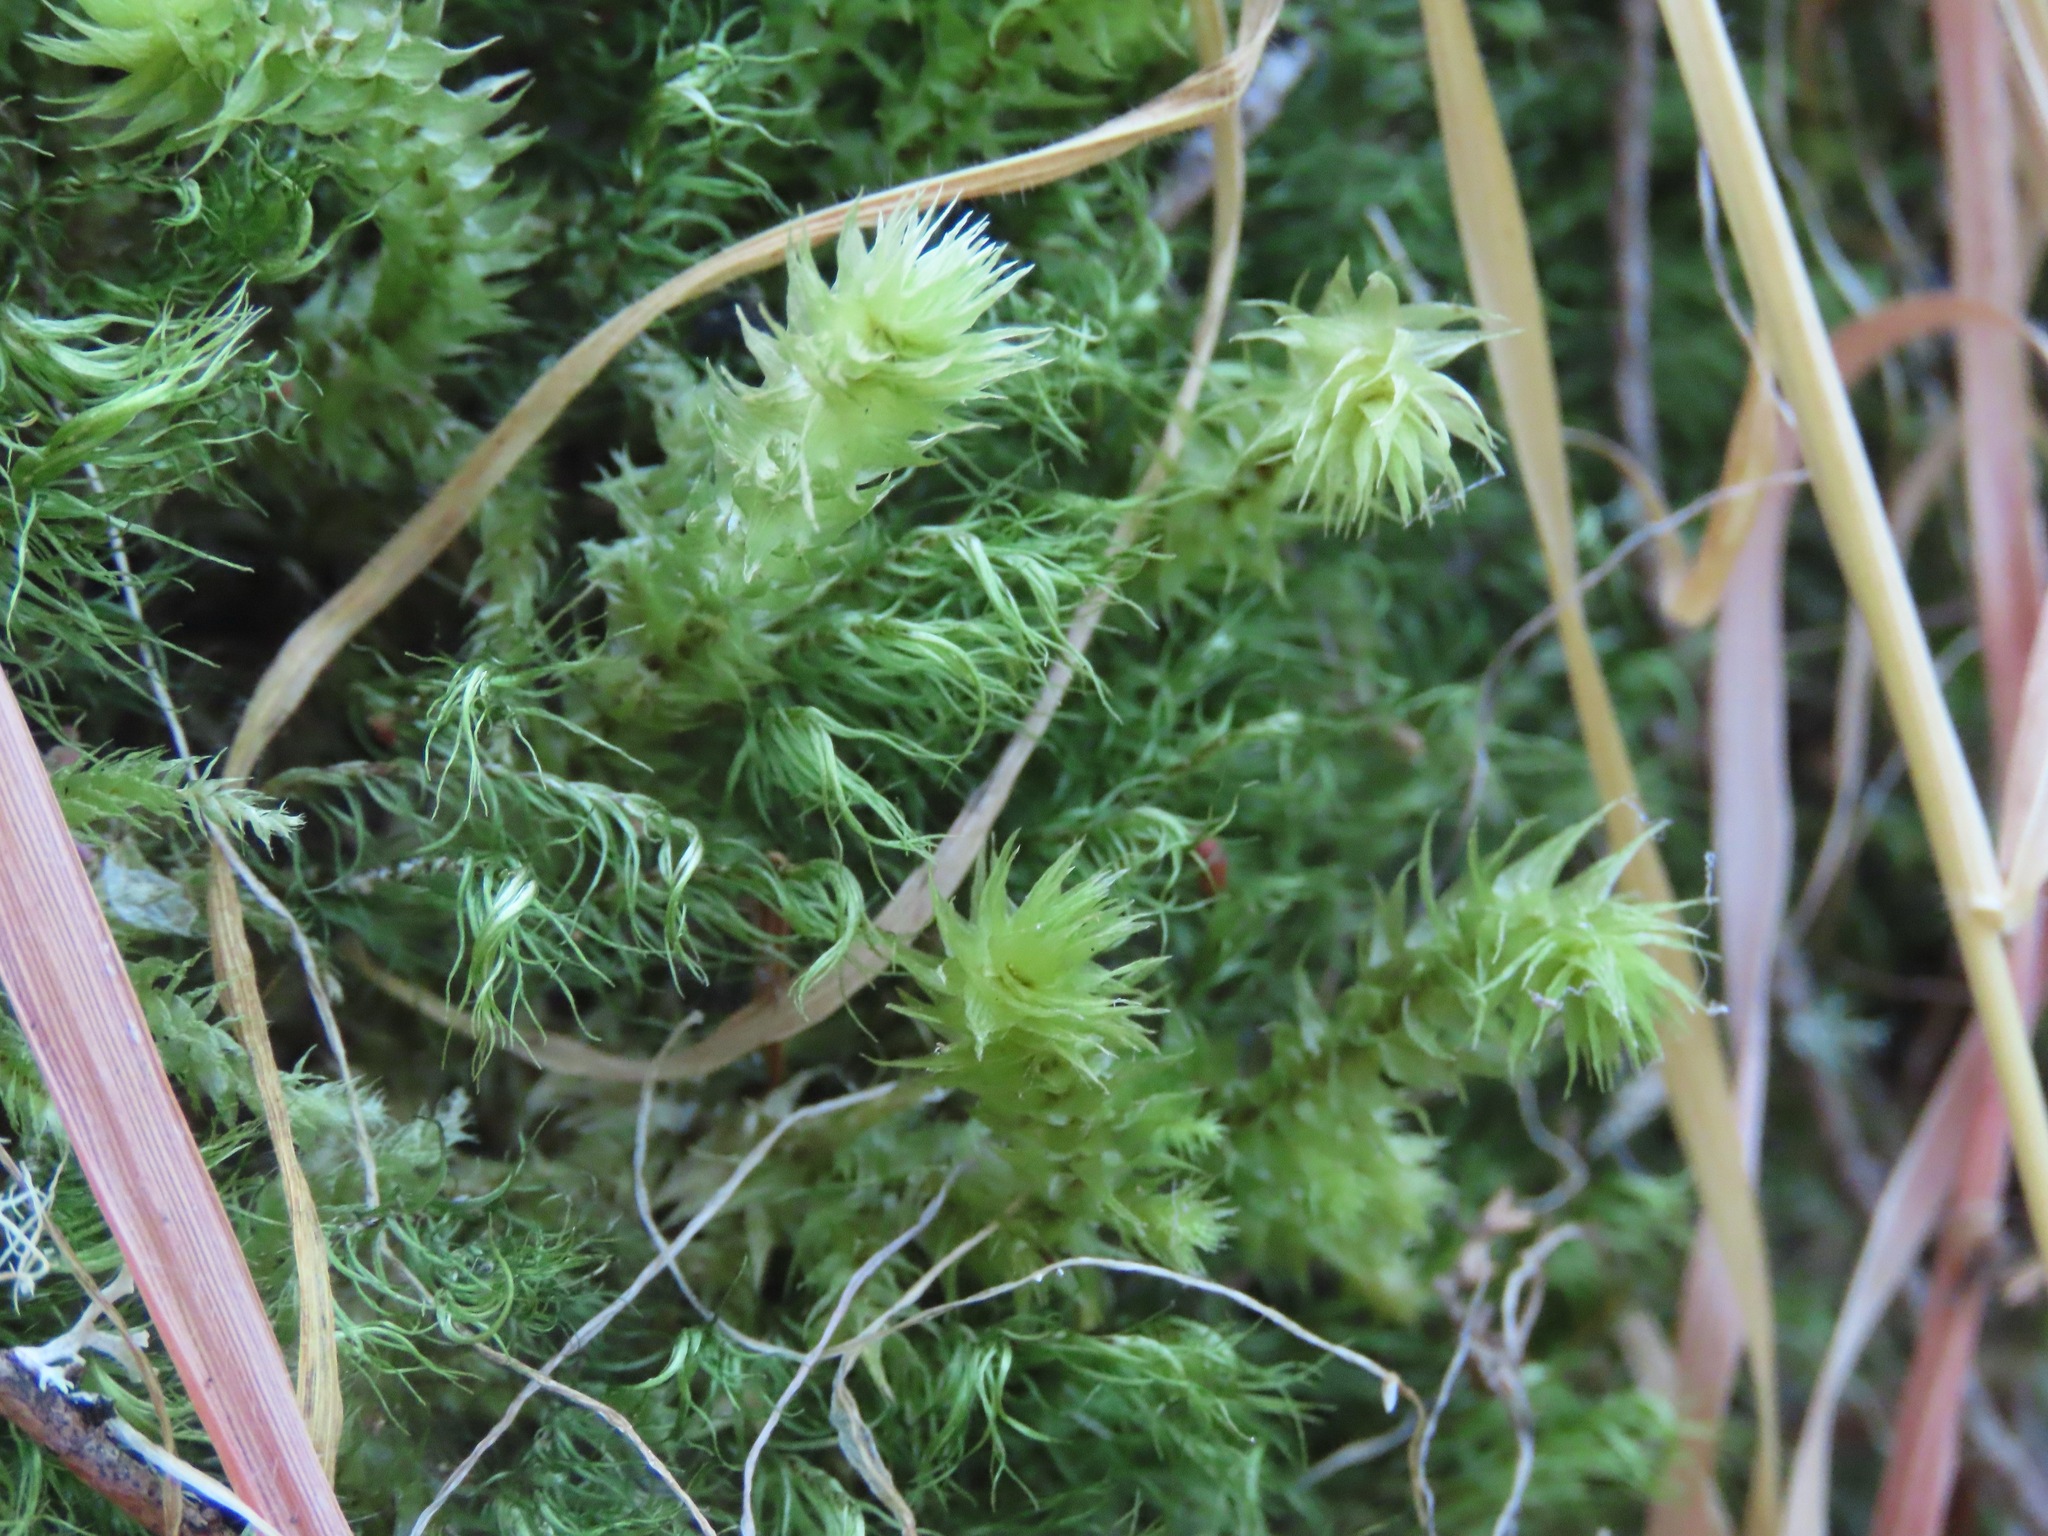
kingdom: Plantae
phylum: Bryophyta
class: Bryopsida
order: Hypnales
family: Hylocomiaceae
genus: Hylocomiadelphus
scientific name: Hylocomiadelphus triquetrus
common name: Rough goose neck moss
